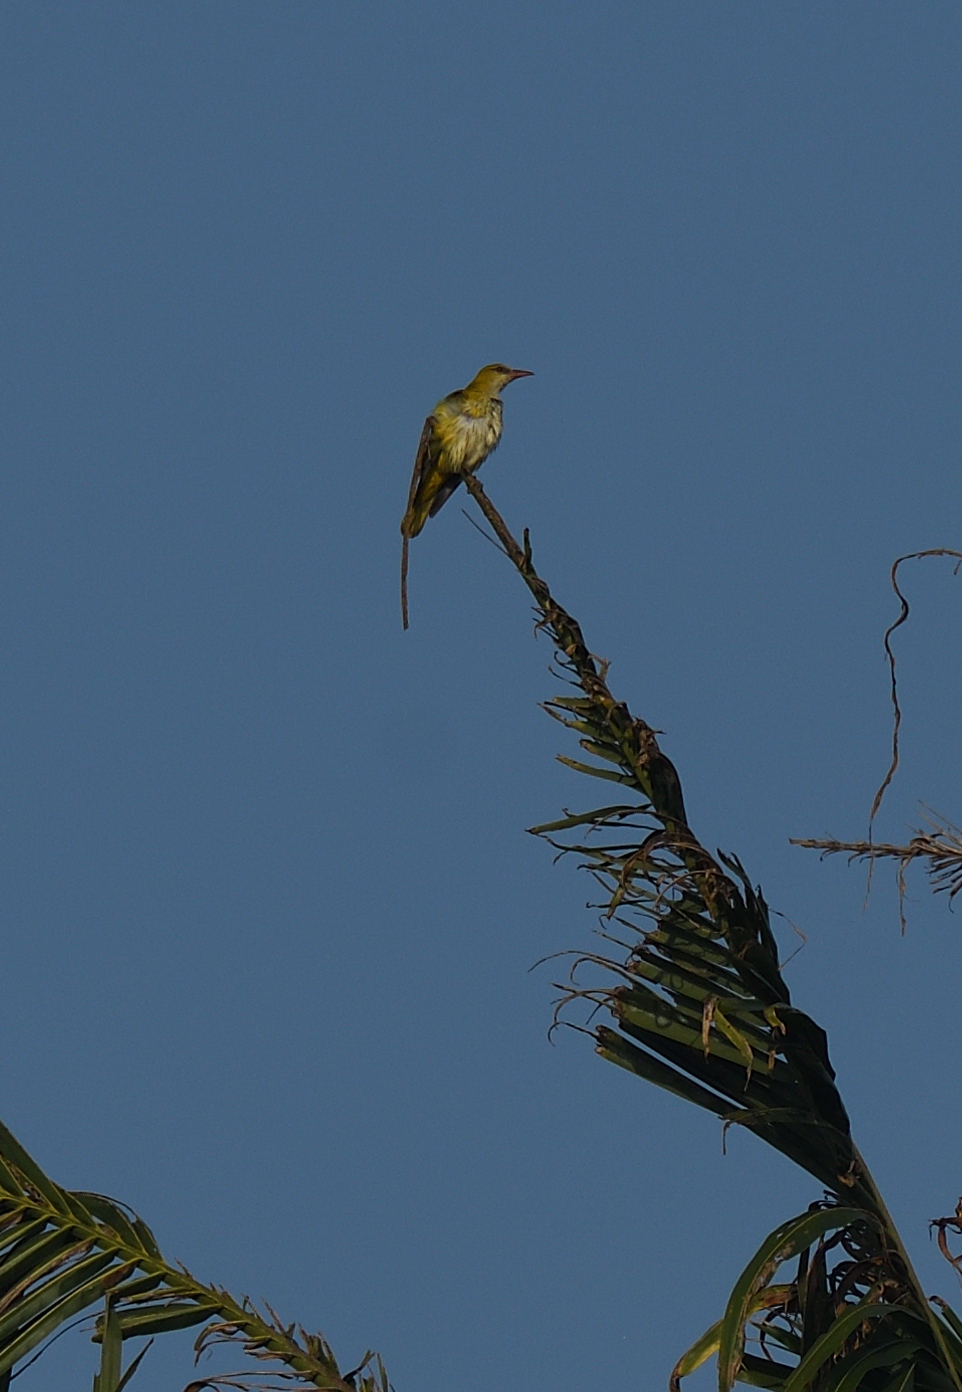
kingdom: Animalia
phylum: Chordata
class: Aves
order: Passeriformes
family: Oriolidae
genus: Oriolus
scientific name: Oriolus kundoo
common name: Indian golden oriole
